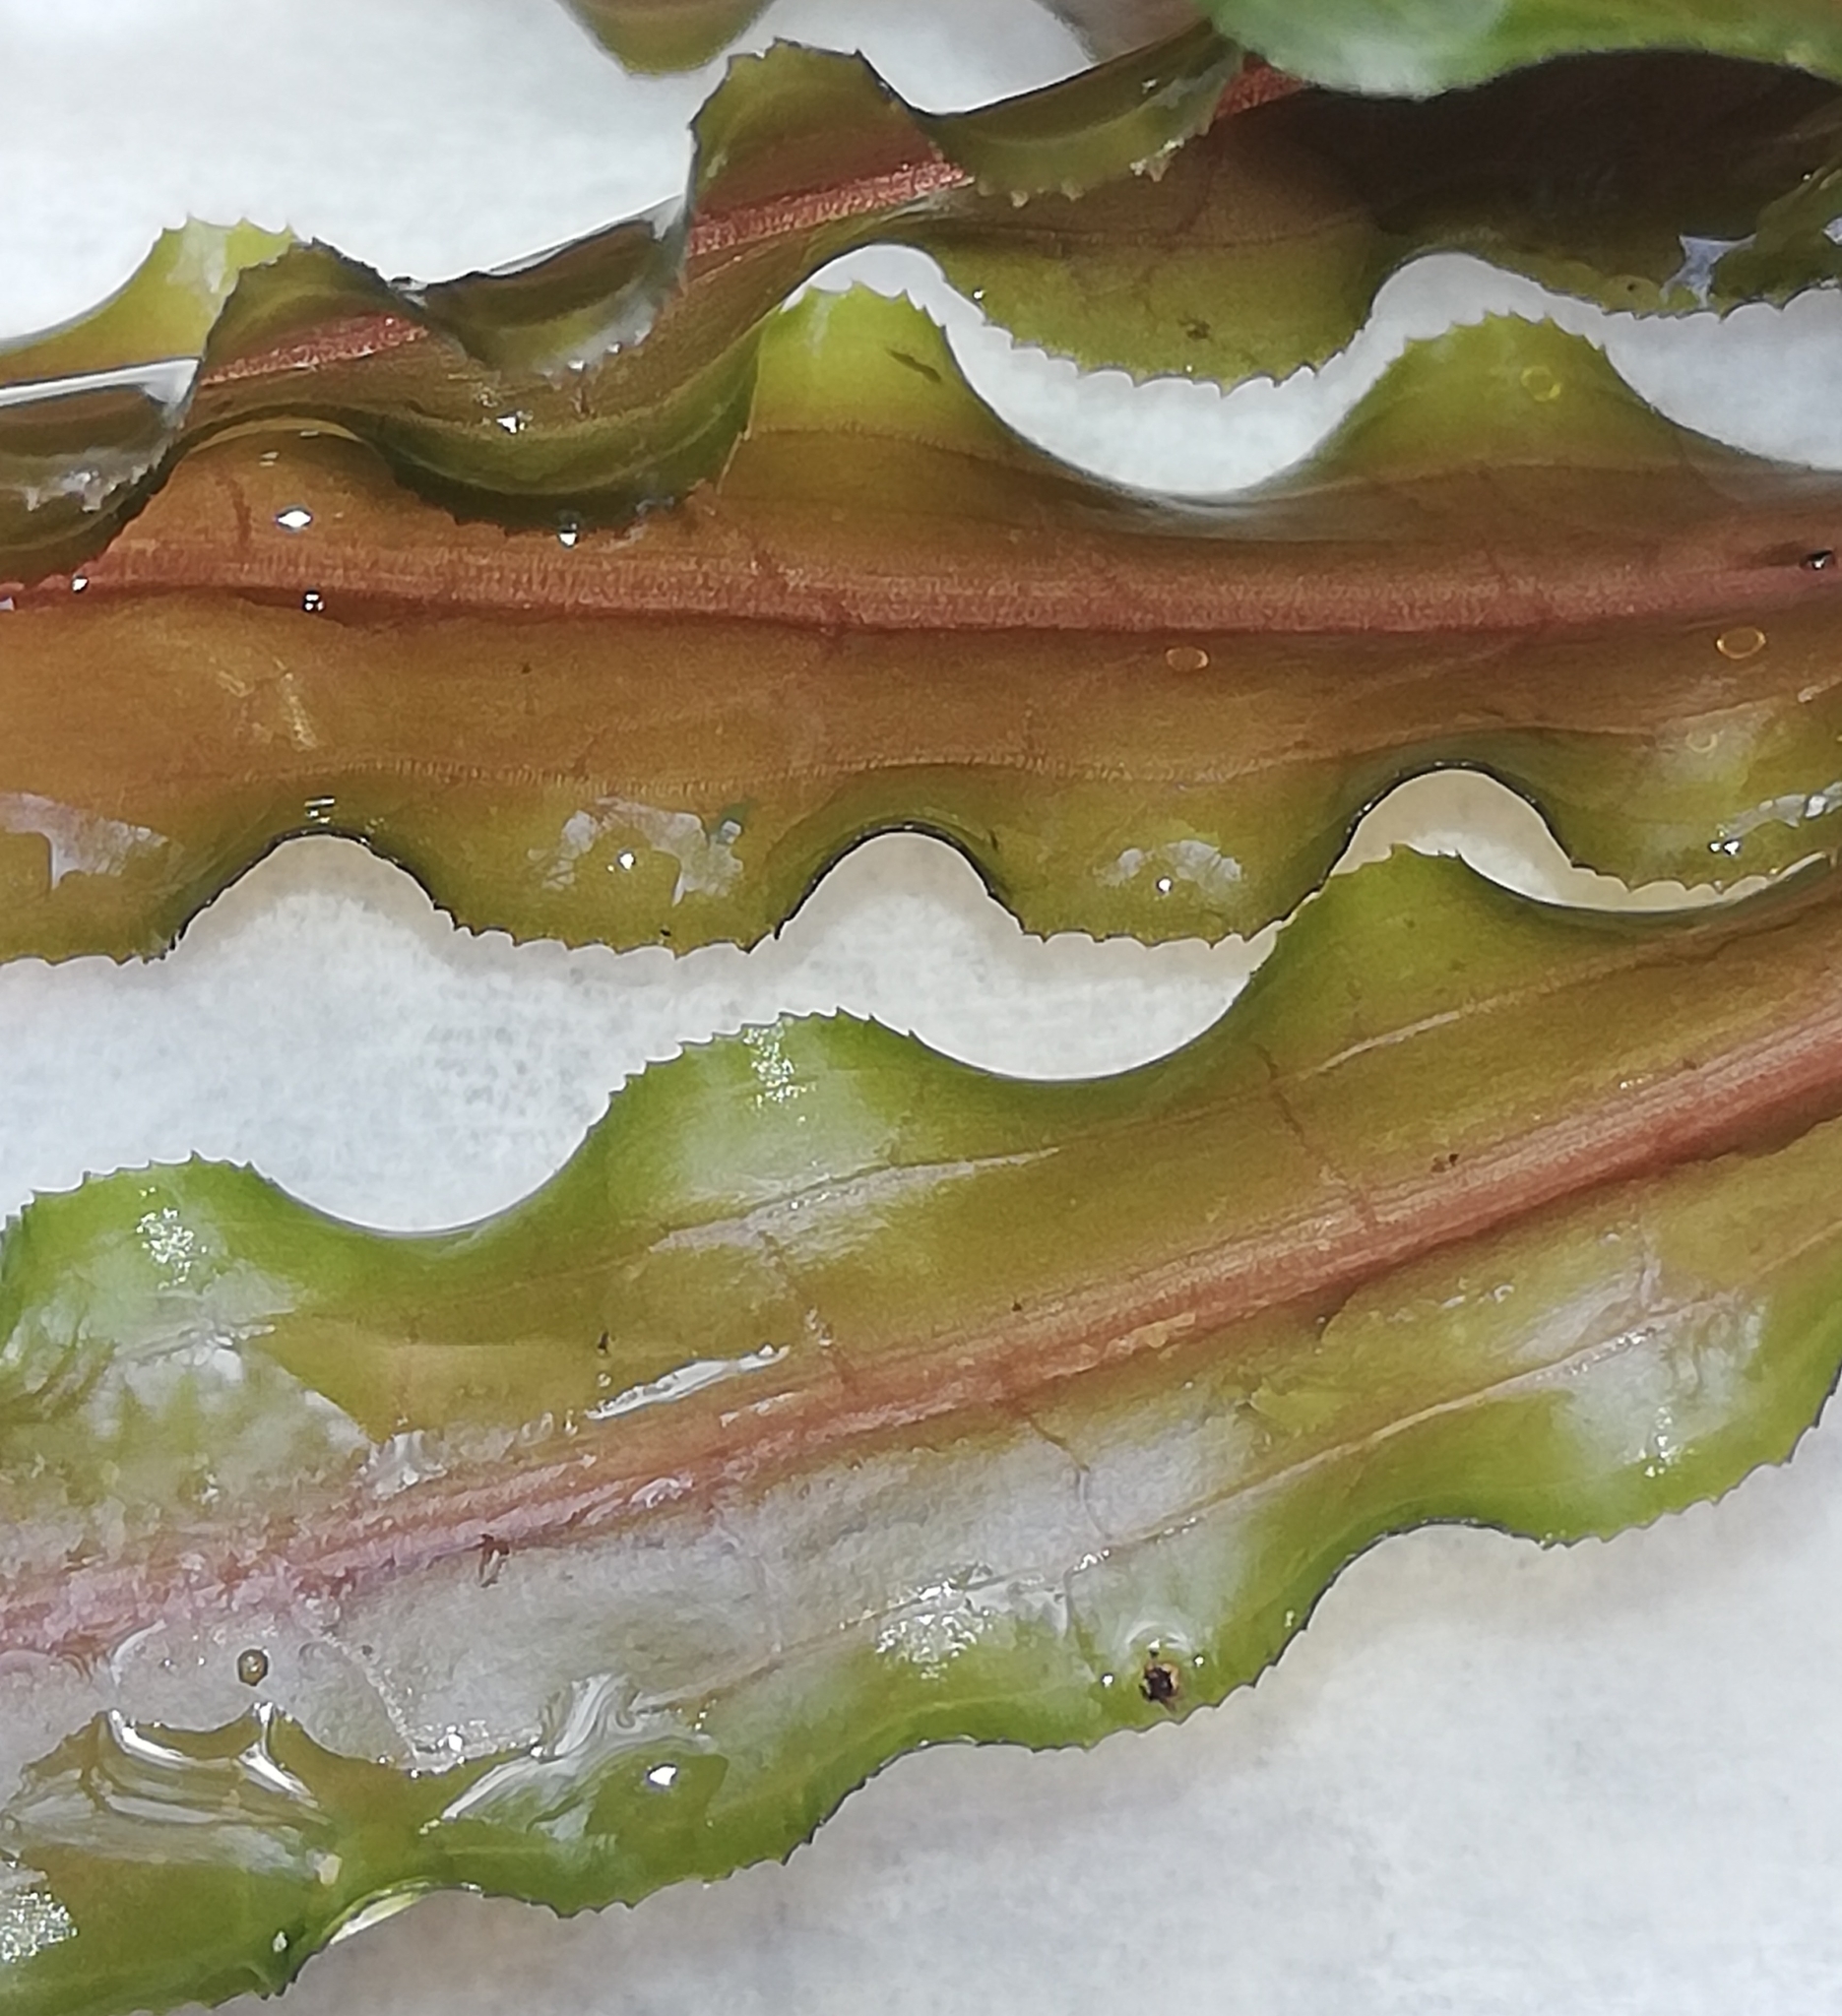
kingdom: Plantae
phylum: Tracheophyta
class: Liliopsida
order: Alismatales
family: Potamogetonaceae
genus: Potamogeton
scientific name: Potamogeton crispus
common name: Curled pondweed
